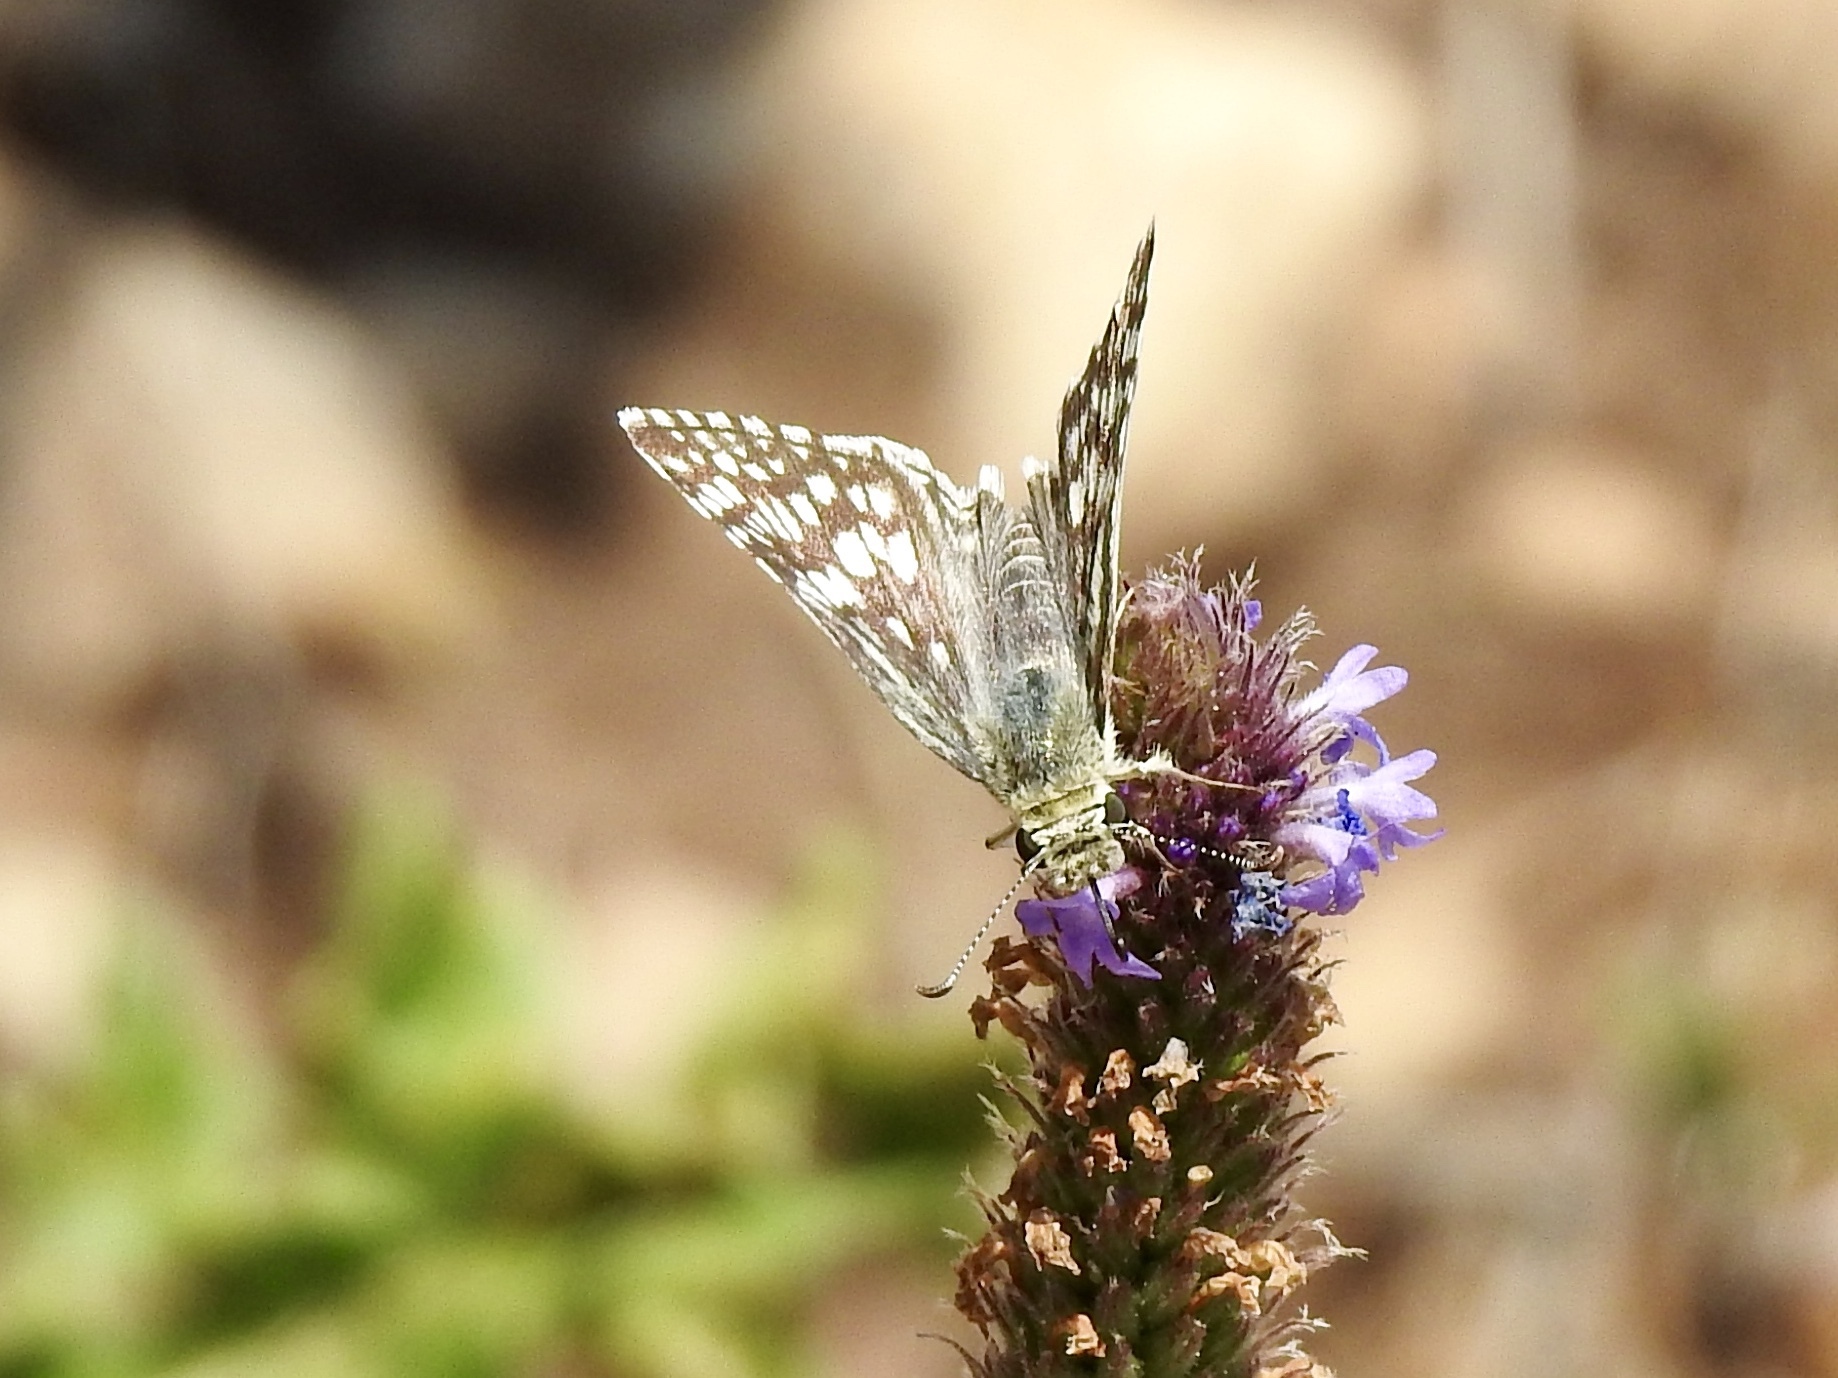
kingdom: Animalia
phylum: Arthropoda
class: Insecta
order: Lepidoptera
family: Hesperiidae
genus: Burnsius
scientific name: Burnsius
